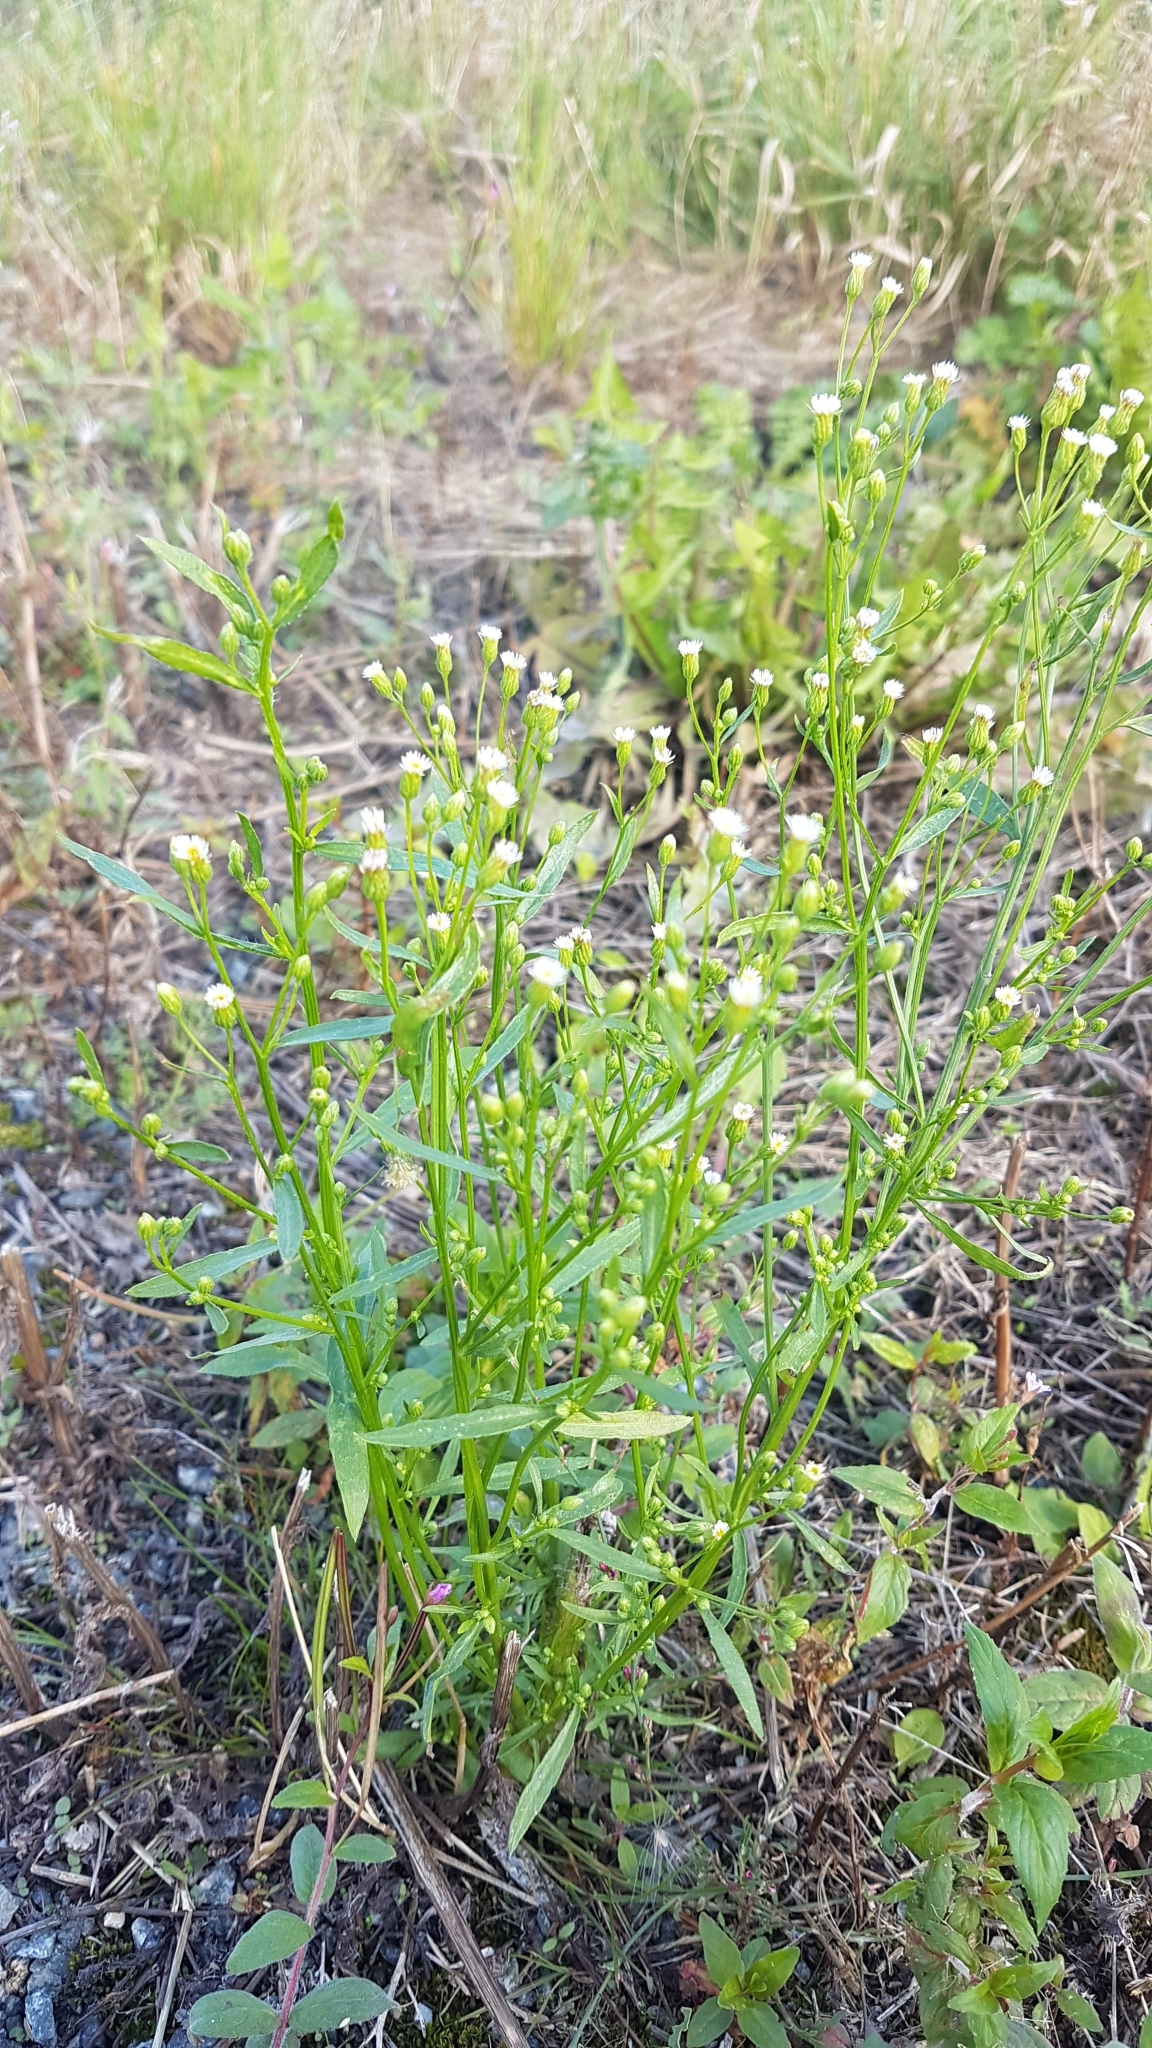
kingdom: Plantae
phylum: Tracheophyta
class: Magnoliopsida
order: Asterales
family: Asteraceae
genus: Erigeron
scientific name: Erigeron canadensis
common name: Canadian fleabane
